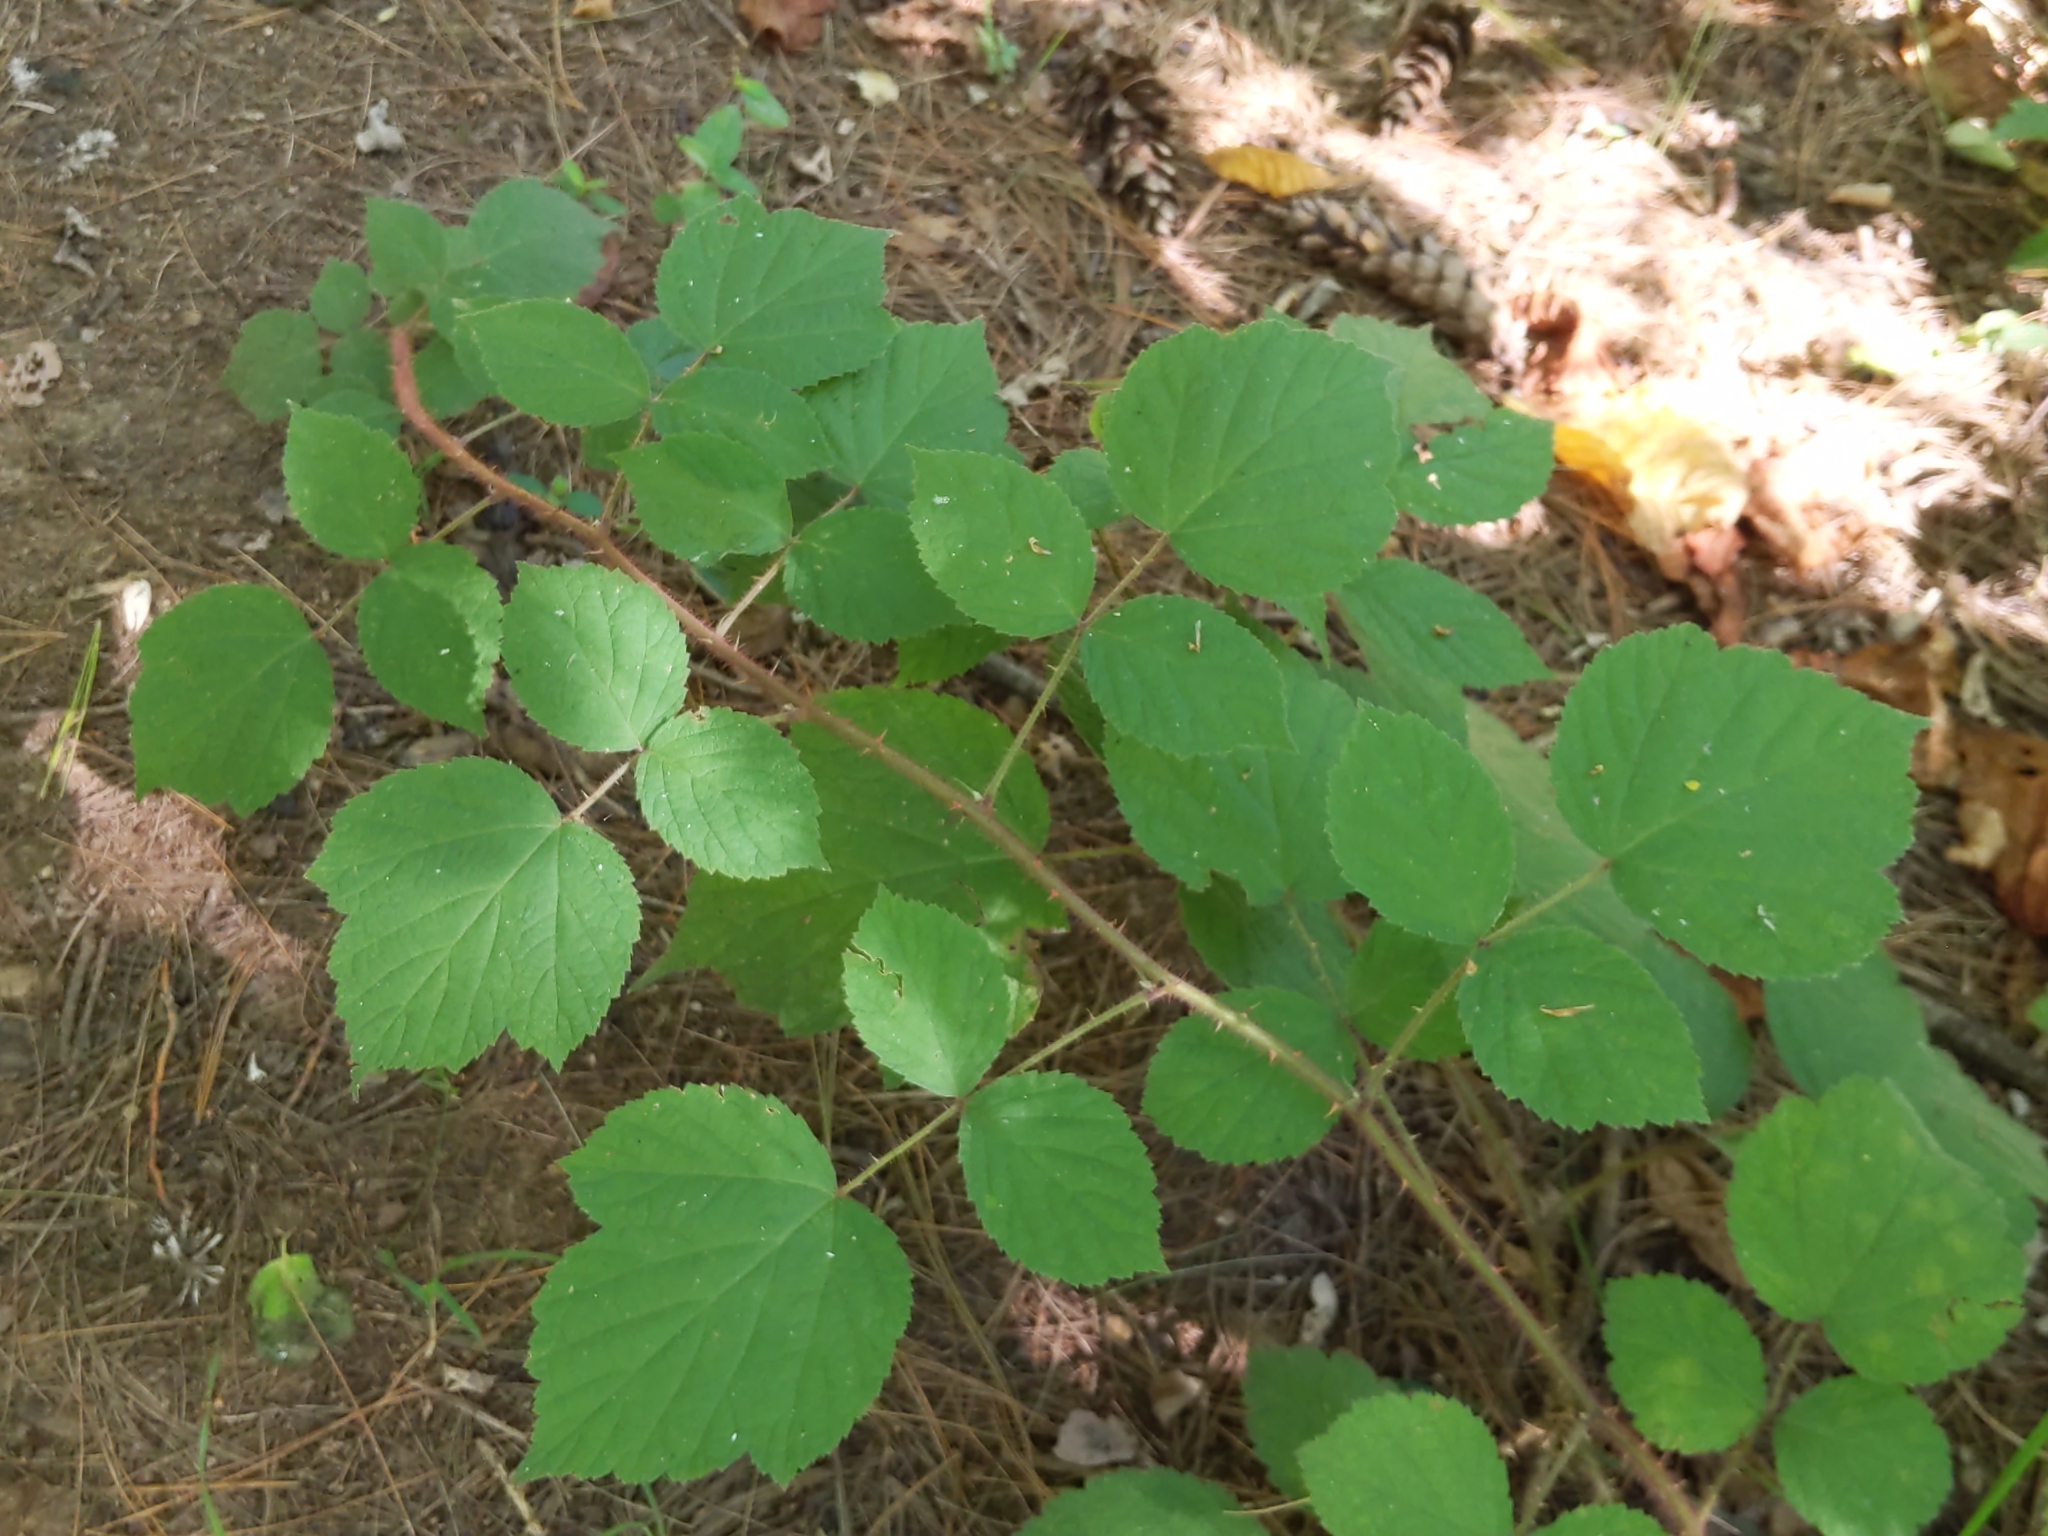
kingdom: Plantae
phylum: Tracheophyta
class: Magnoliopsida
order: Rosales
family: Rosaceae
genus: Rubus
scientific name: Rubus phoenicolasius
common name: Japanese wineberry
